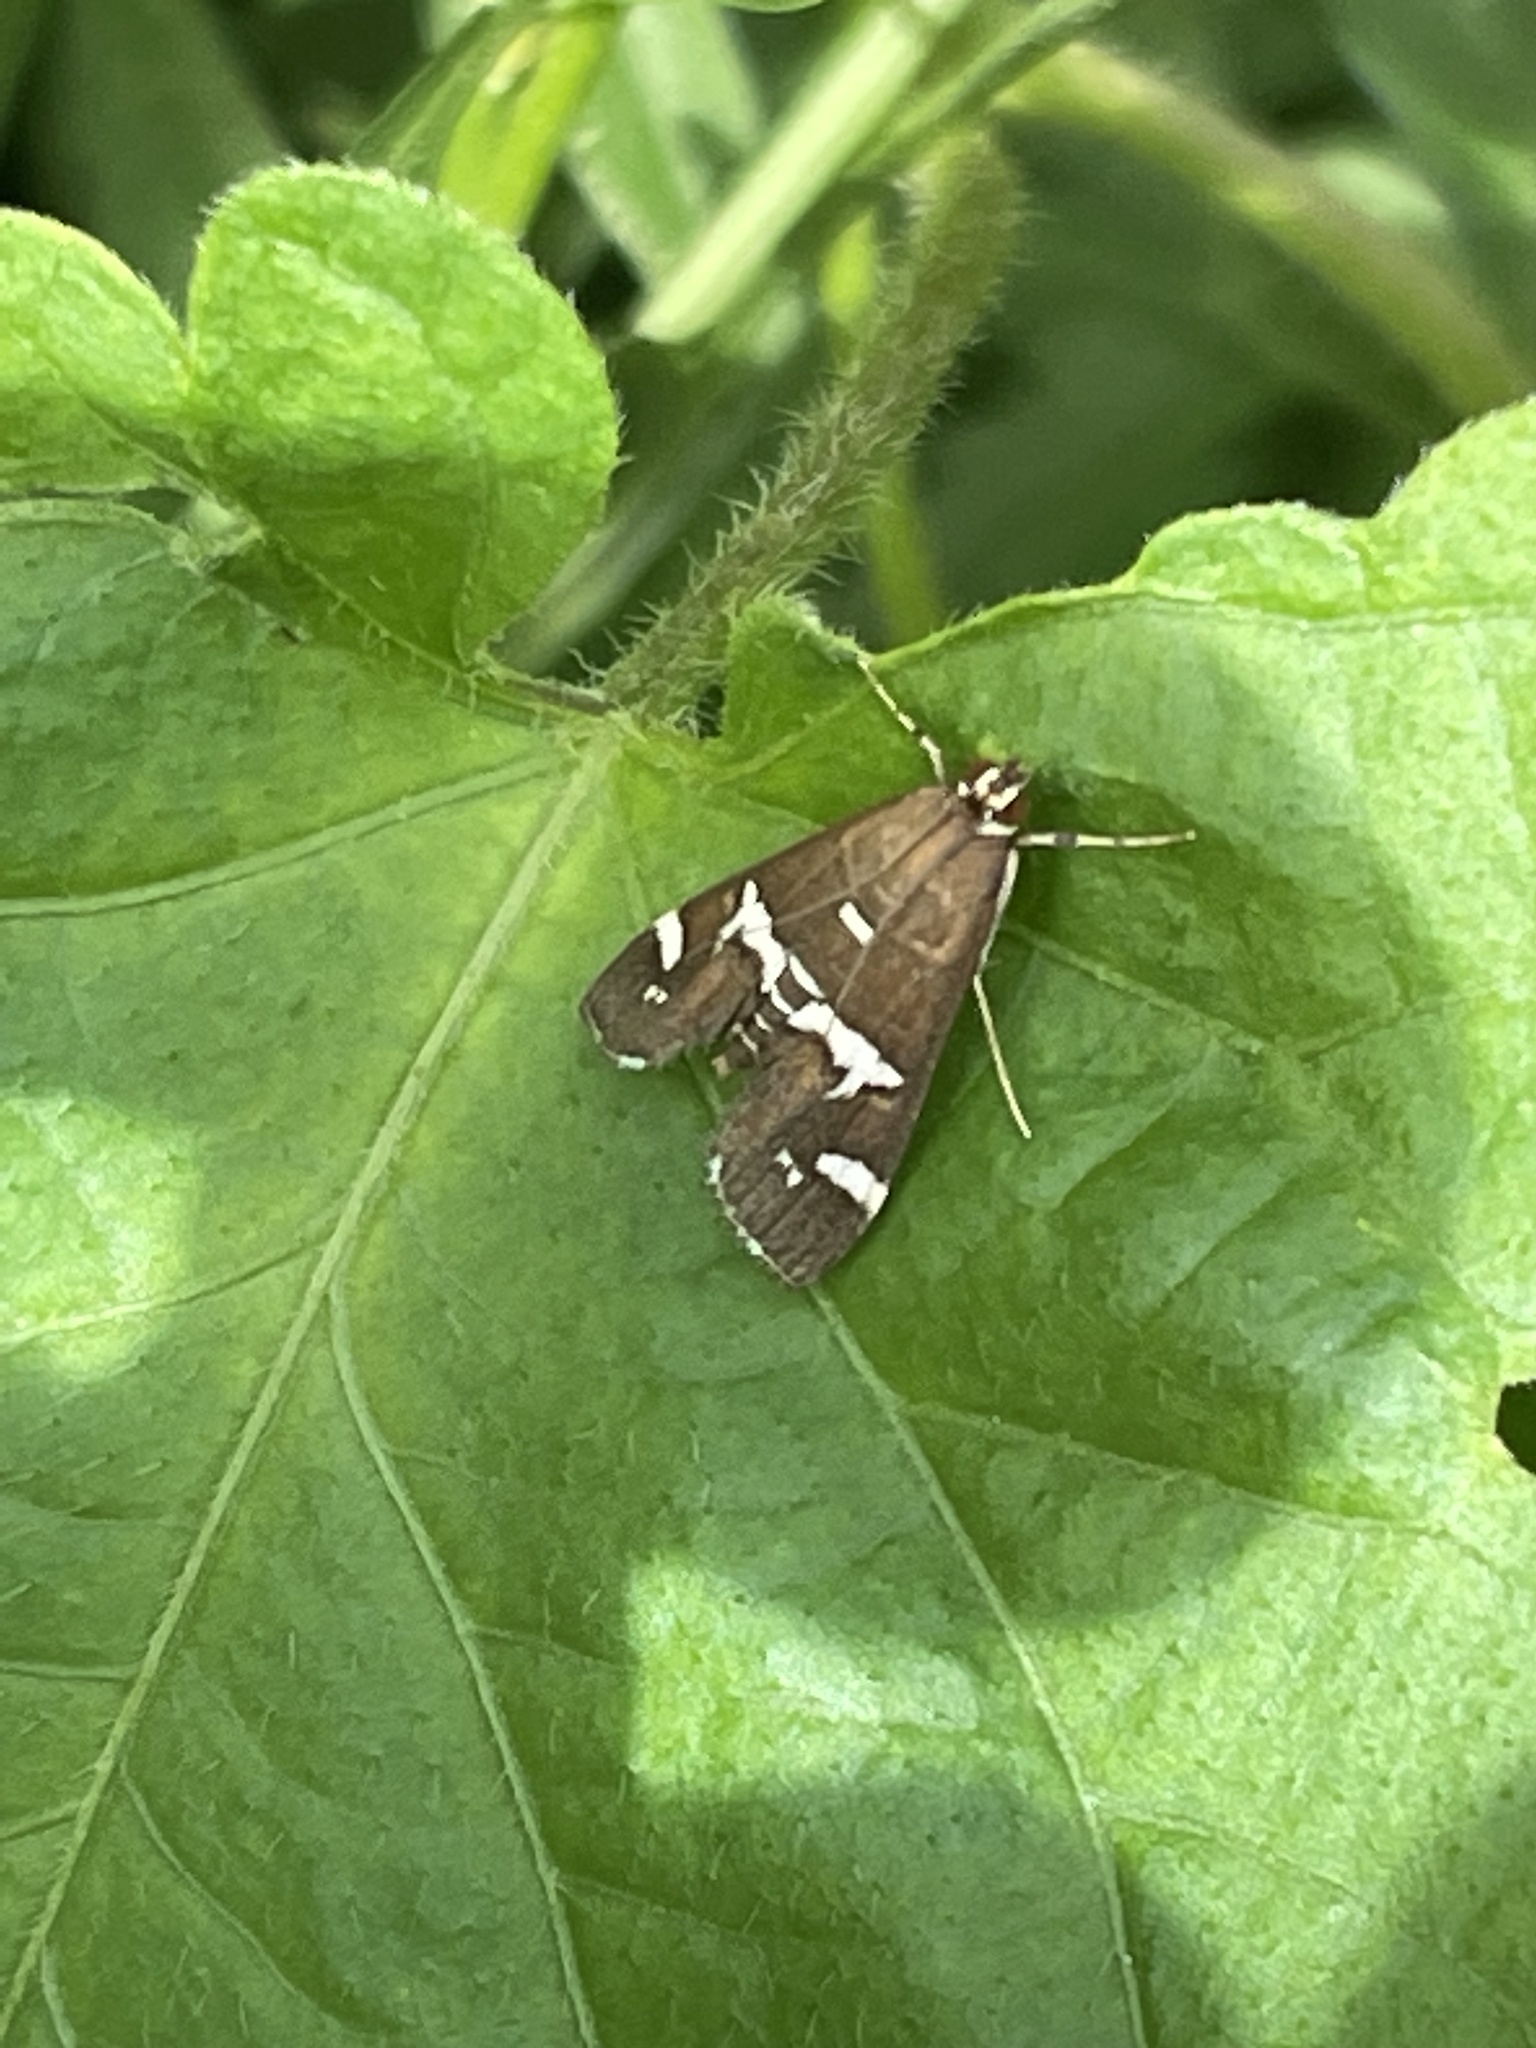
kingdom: Animalia
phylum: Arthropoda
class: Insecta
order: Lepidoptera
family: Crambidae
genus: Spoladea
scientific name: Spoladea recurvalis
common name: Beet webworm moth
